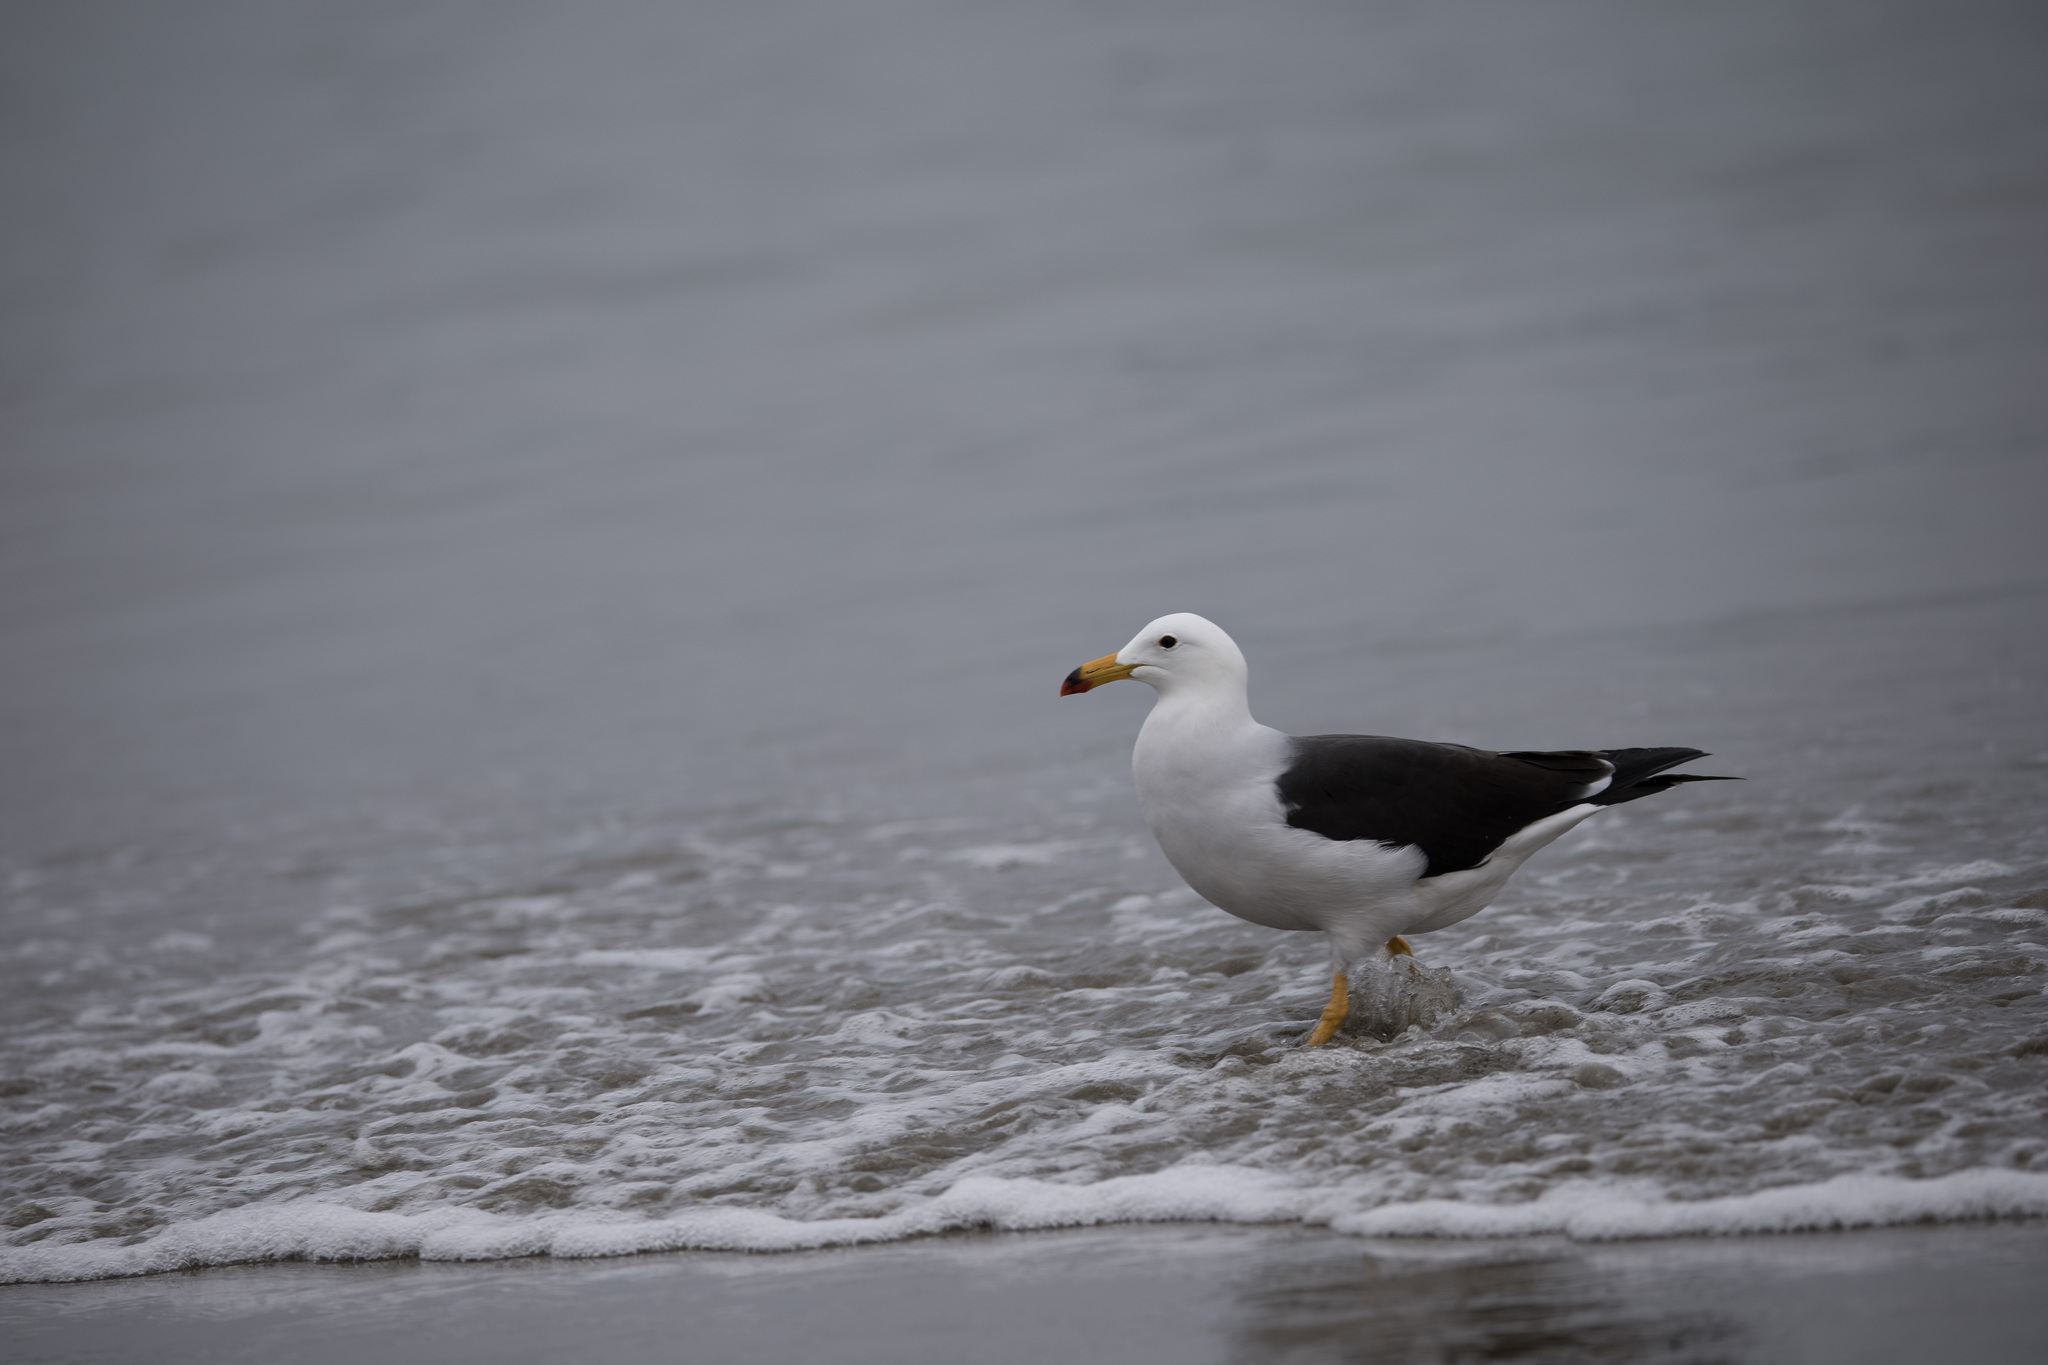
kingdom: Animalia
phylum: Chordata
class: Aves
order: Charadriiformes
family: Laridae
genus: Larus
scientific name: Larus belcheri
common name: Belcher's gull
